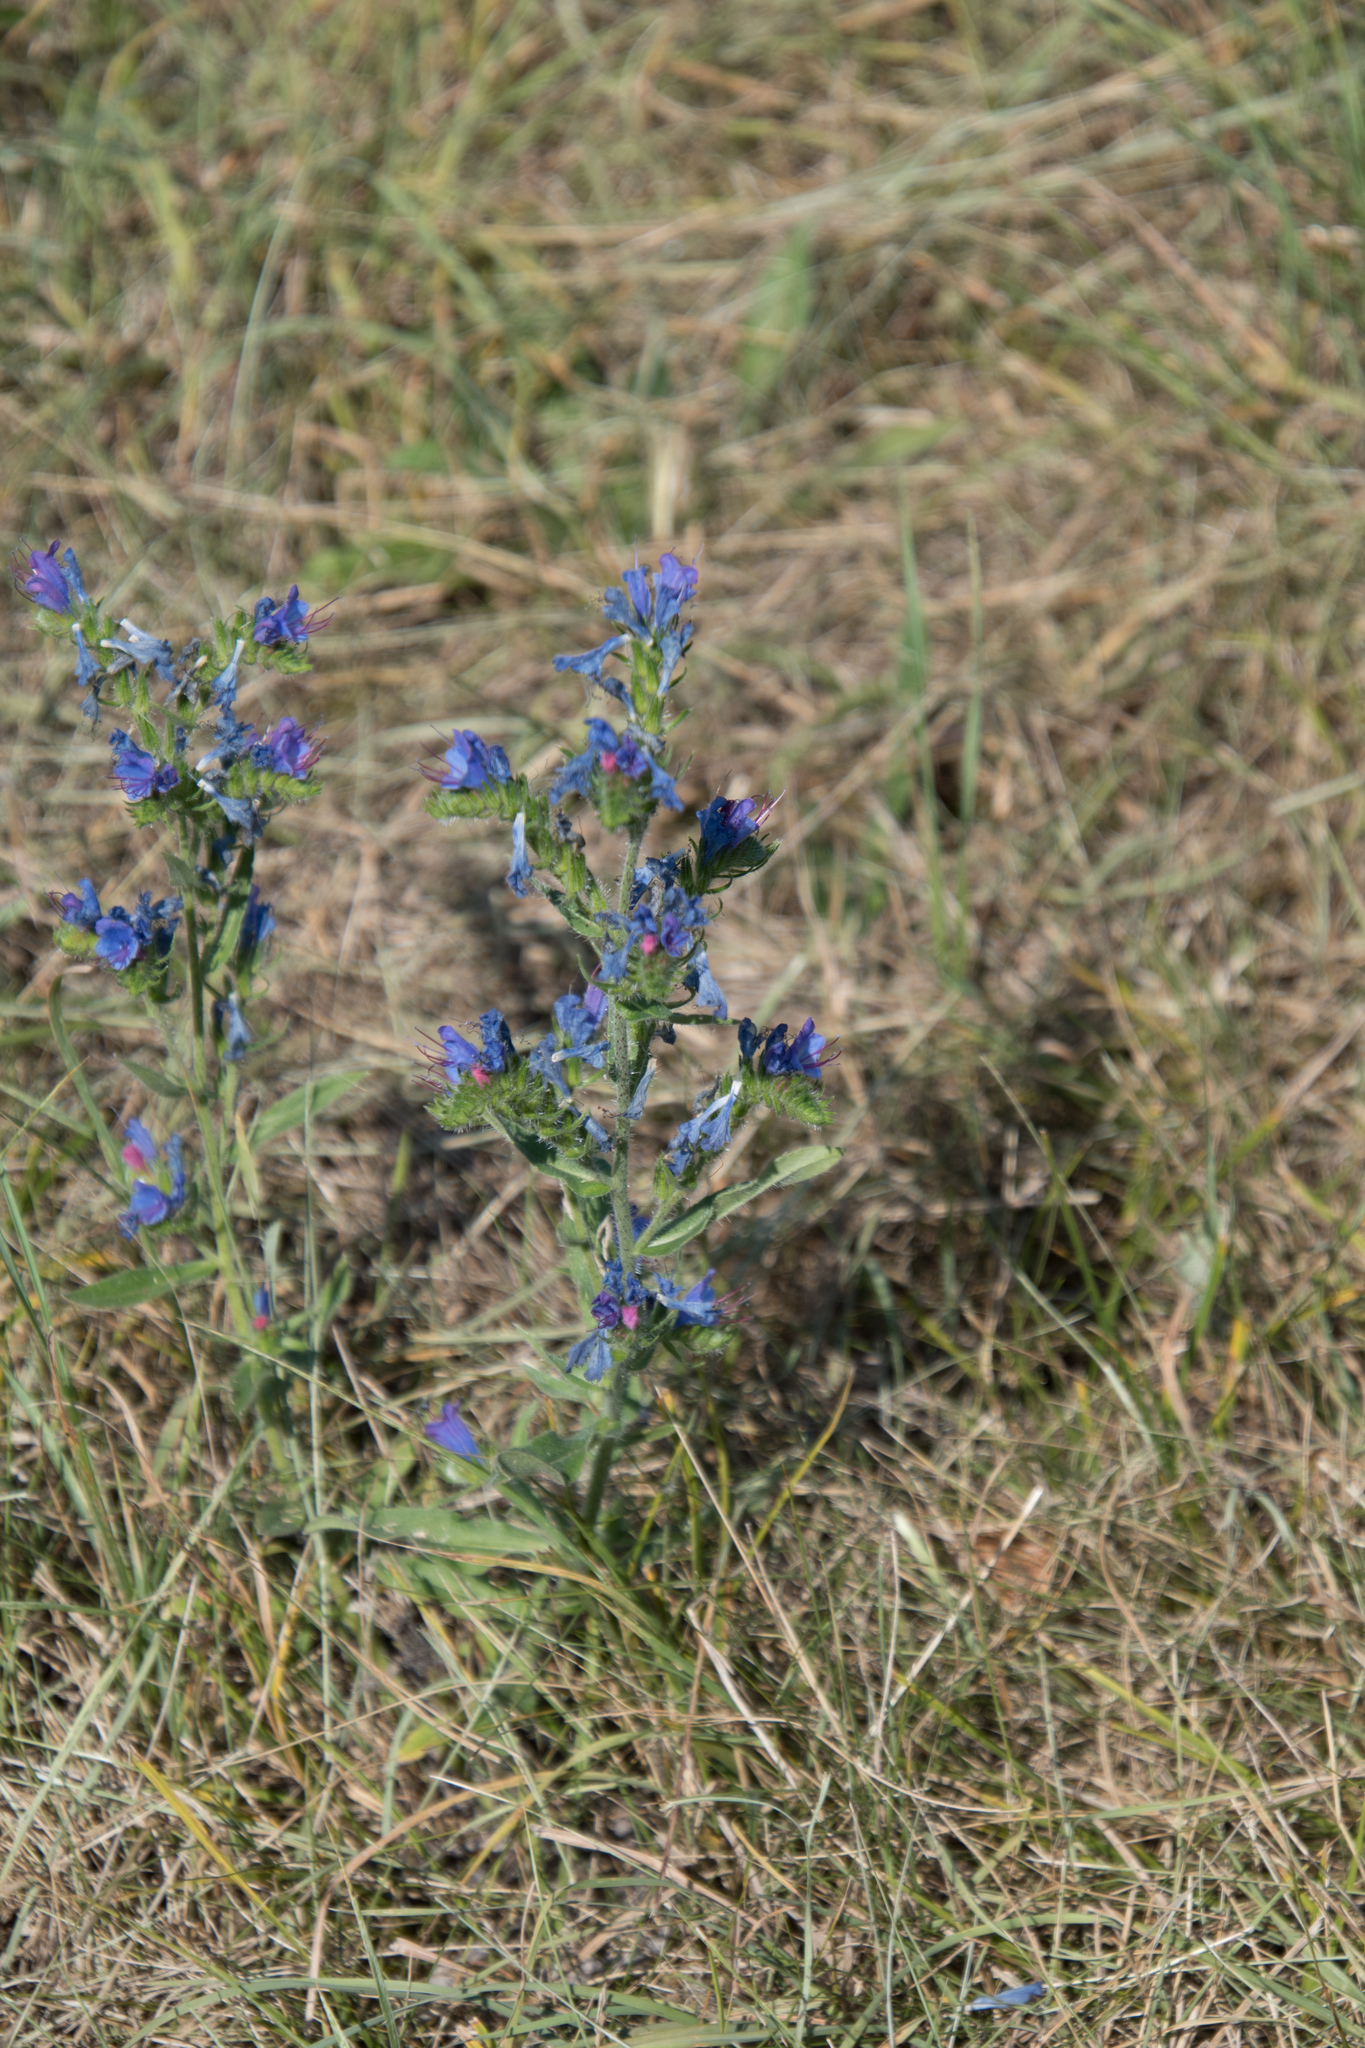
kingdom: Plantae
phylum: Tracheophyta
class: Magnoliopsida
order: Boraginales
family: Boraginaceae
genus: Echium
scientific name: Echium vulgare
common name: Common viper's bugloss
